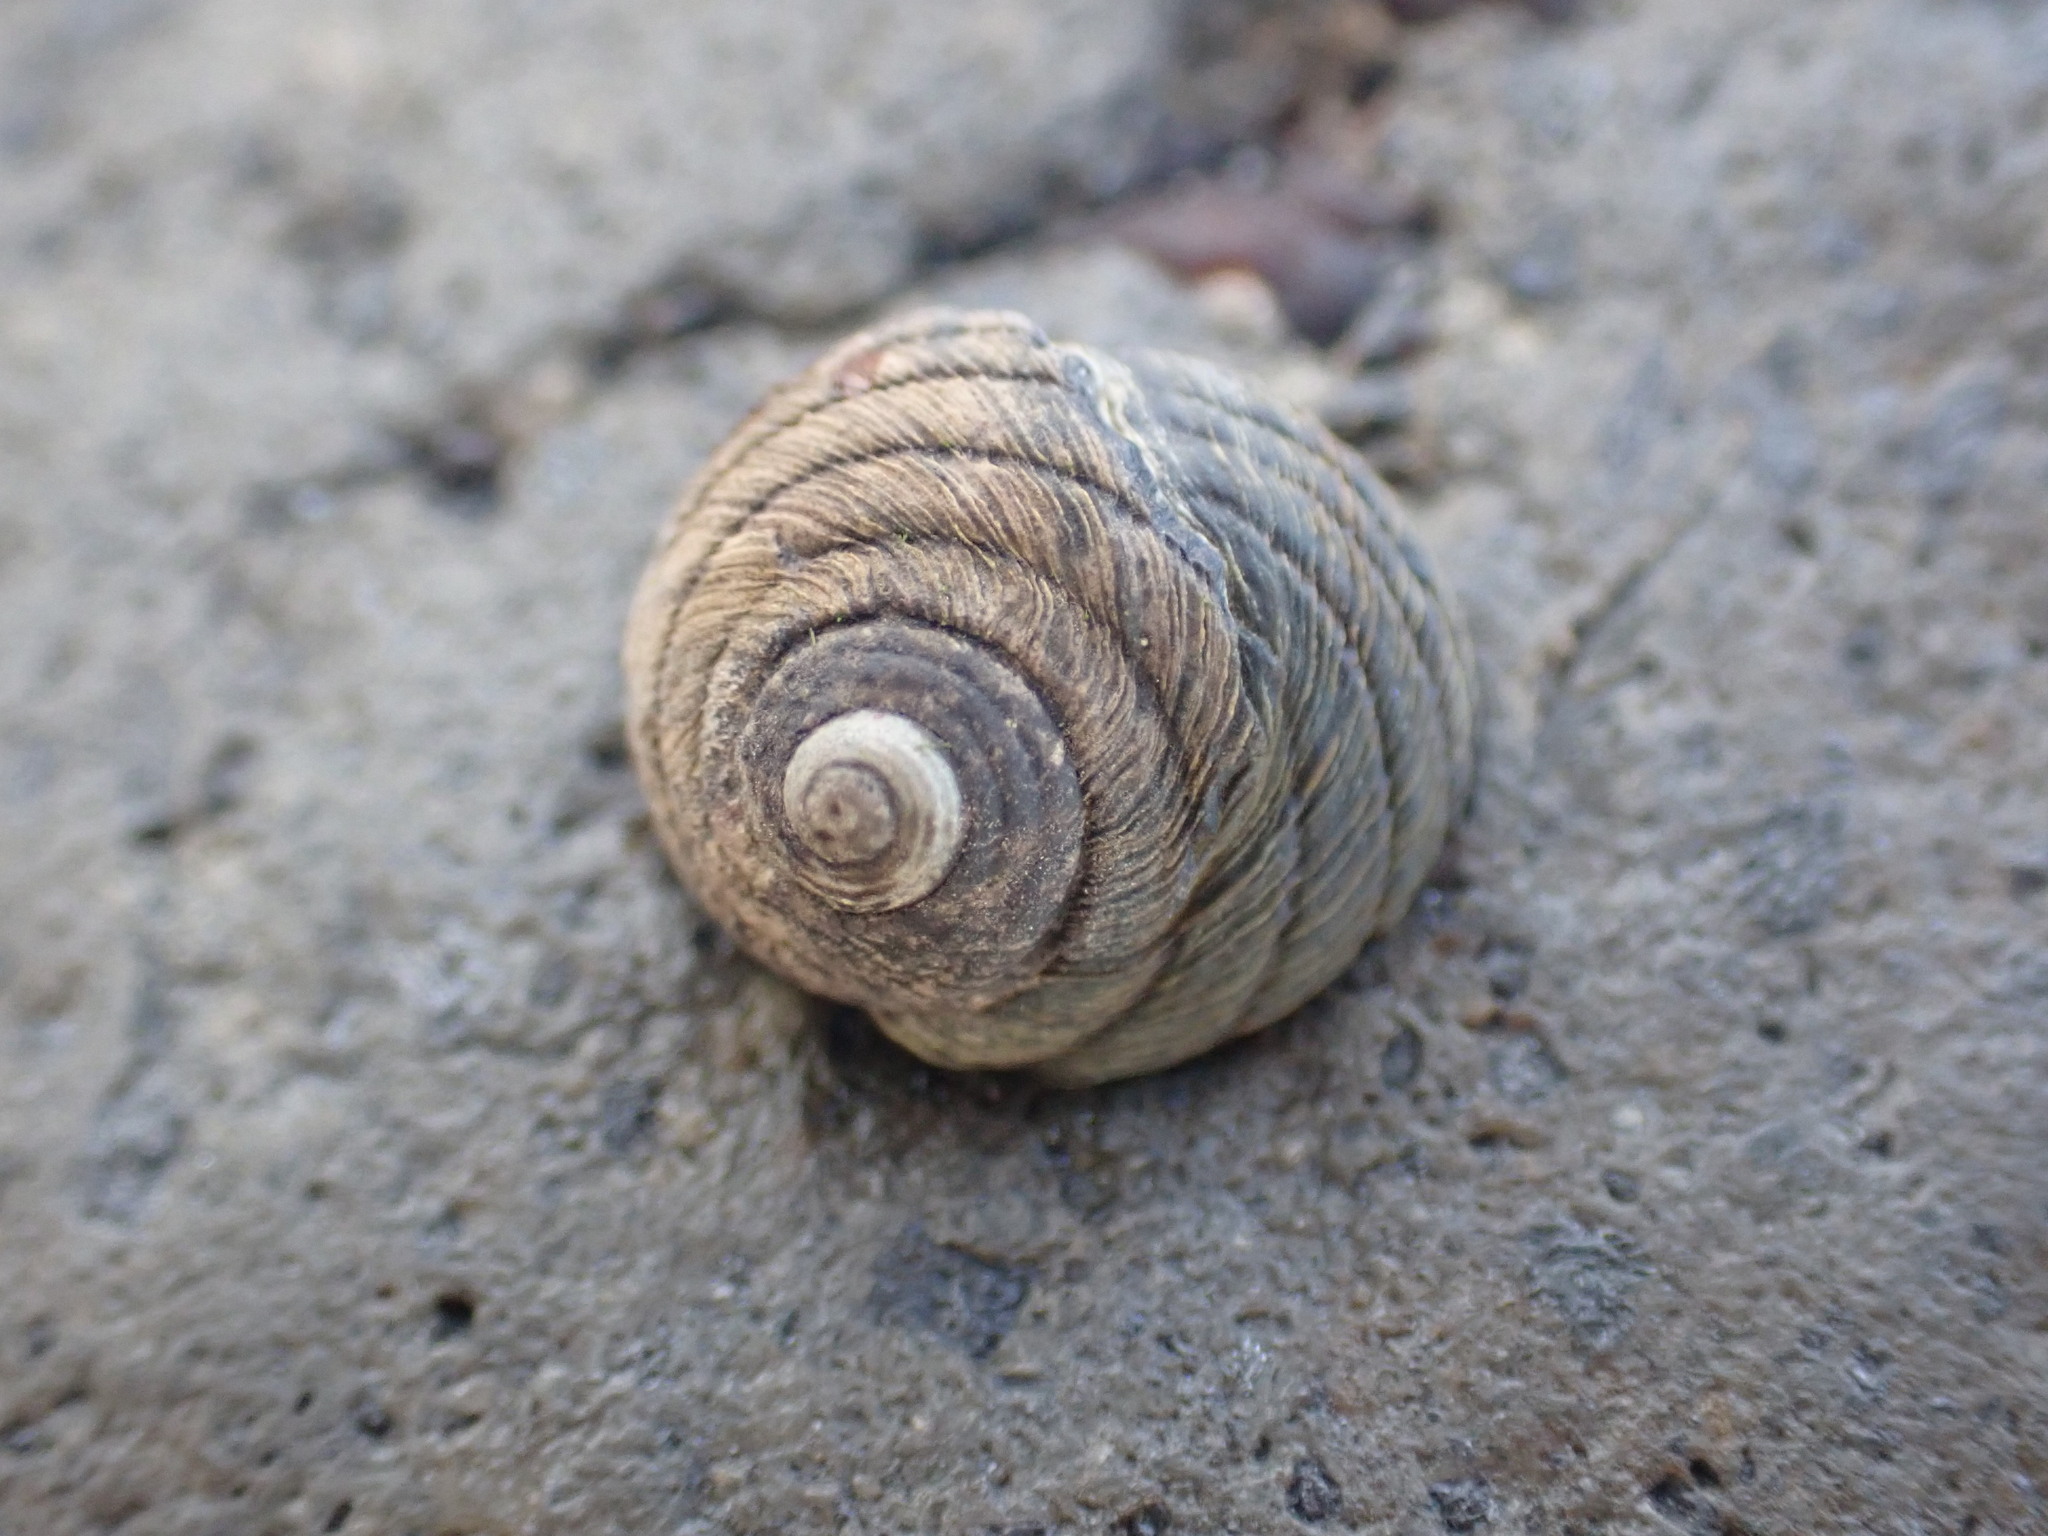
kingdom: Animalia
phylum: Mollusca
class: Gastropoda
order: Trochida
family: Trochidae
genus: Diloma
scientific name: Diloma aethiops
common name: Scorched monodont
